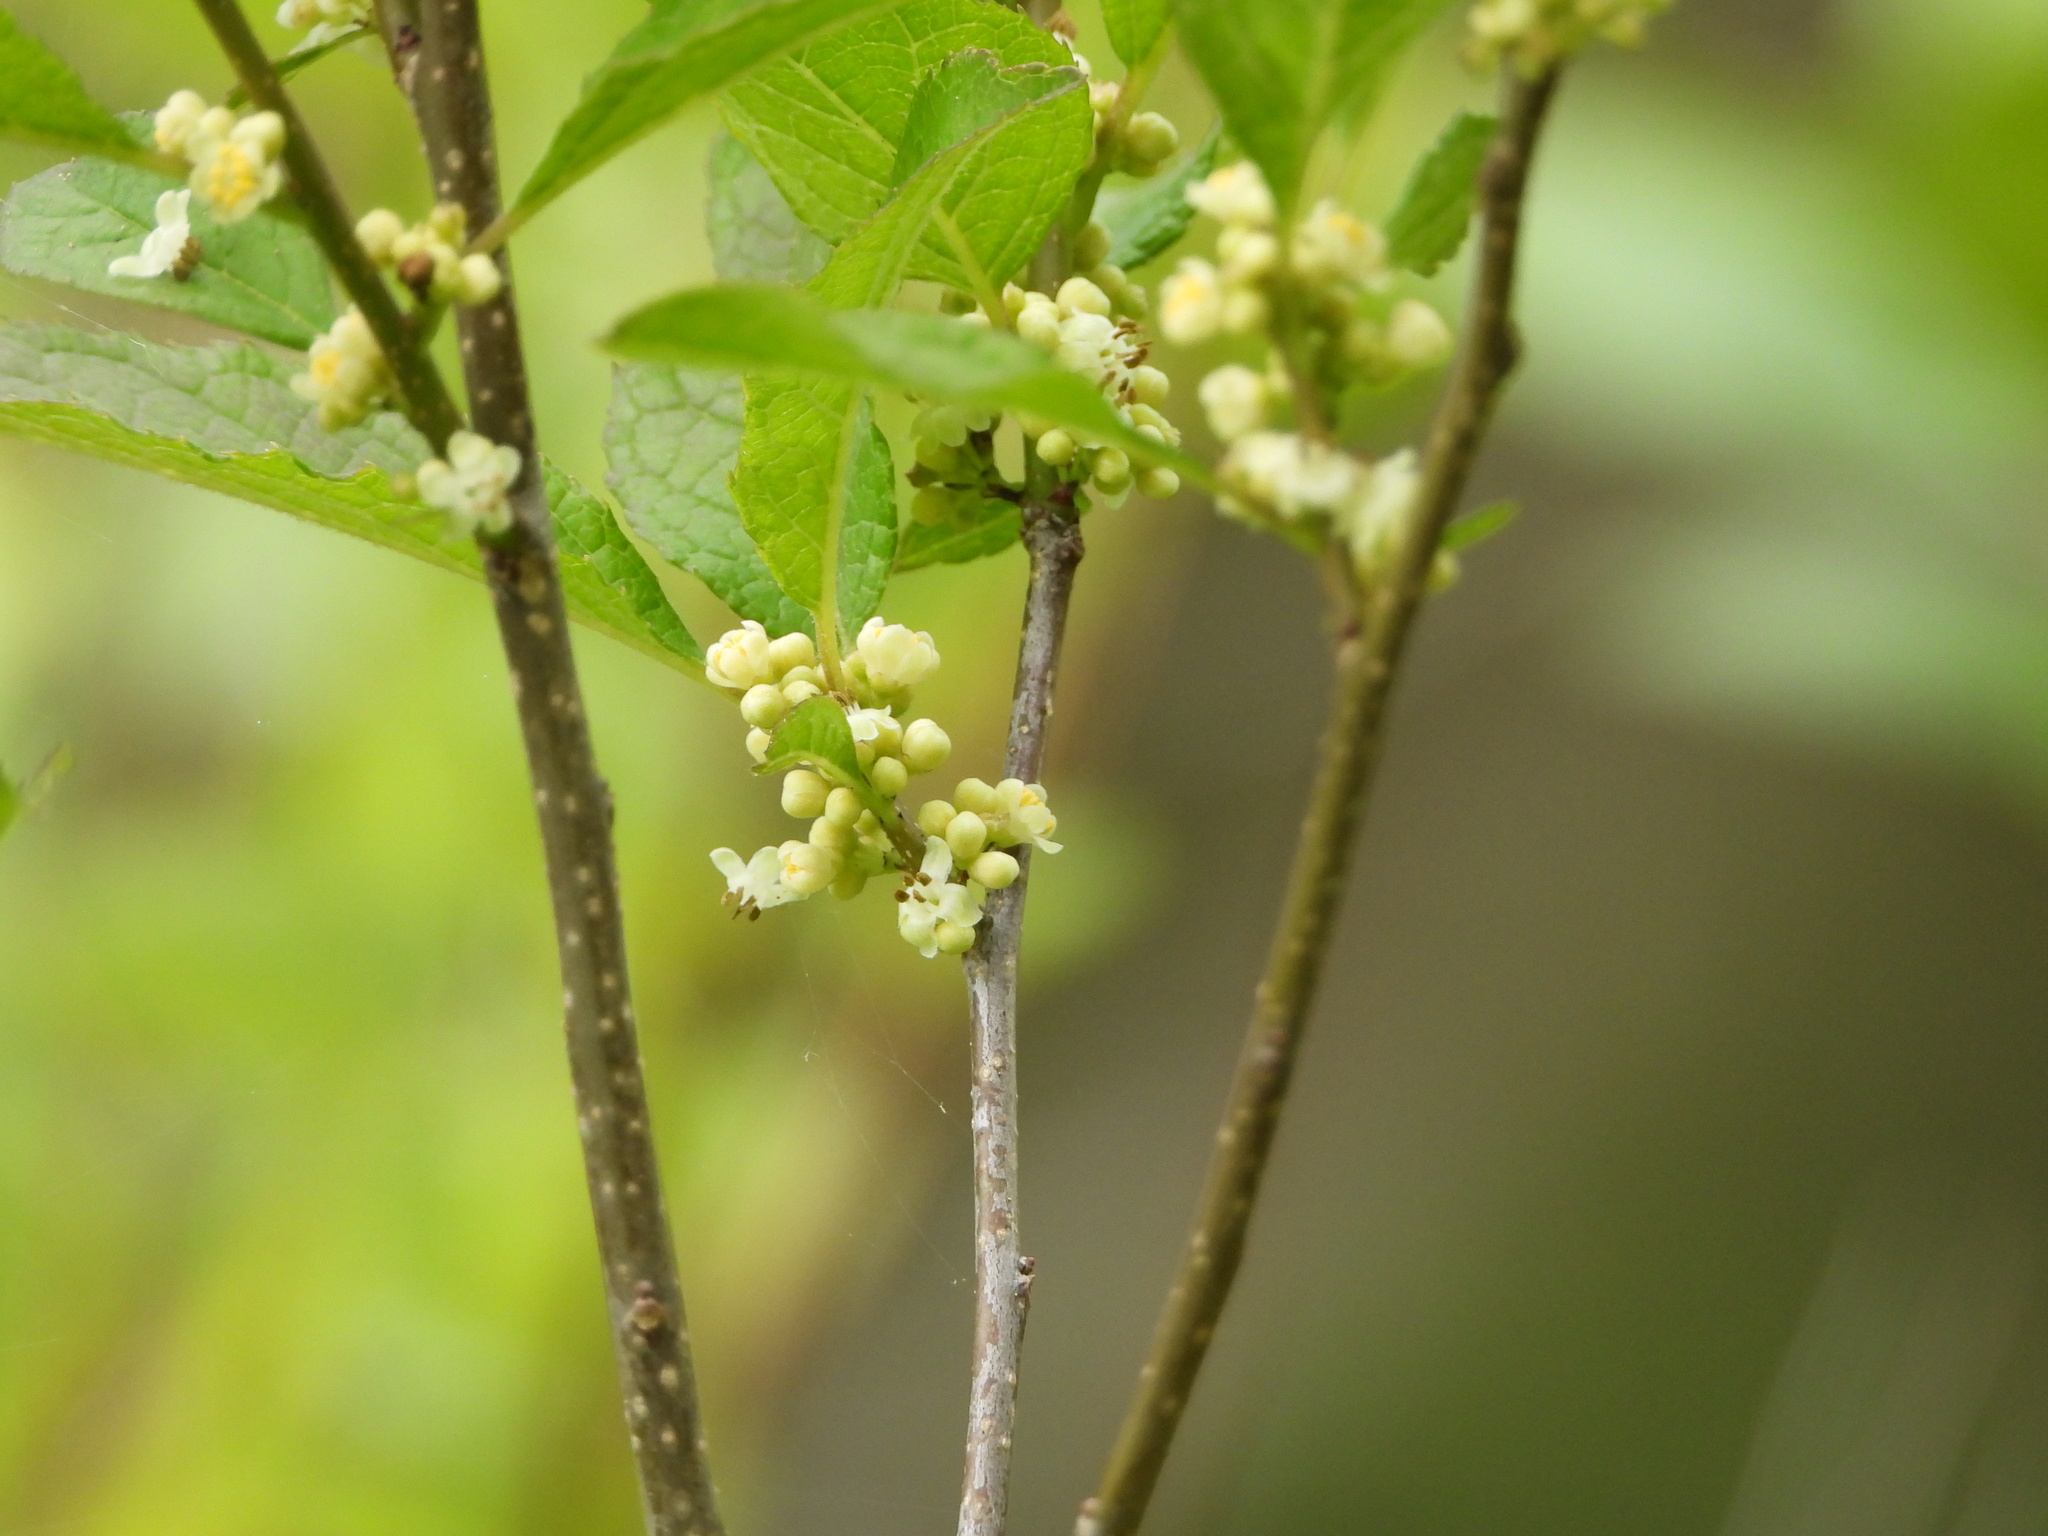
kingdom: Plantae
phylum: Tracheophyta
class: Magnoliopsida
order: Aquifoliales
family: Aquifoliaceae
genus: Ilex
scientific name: Ilex verticillata
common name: Virginia winterberry
